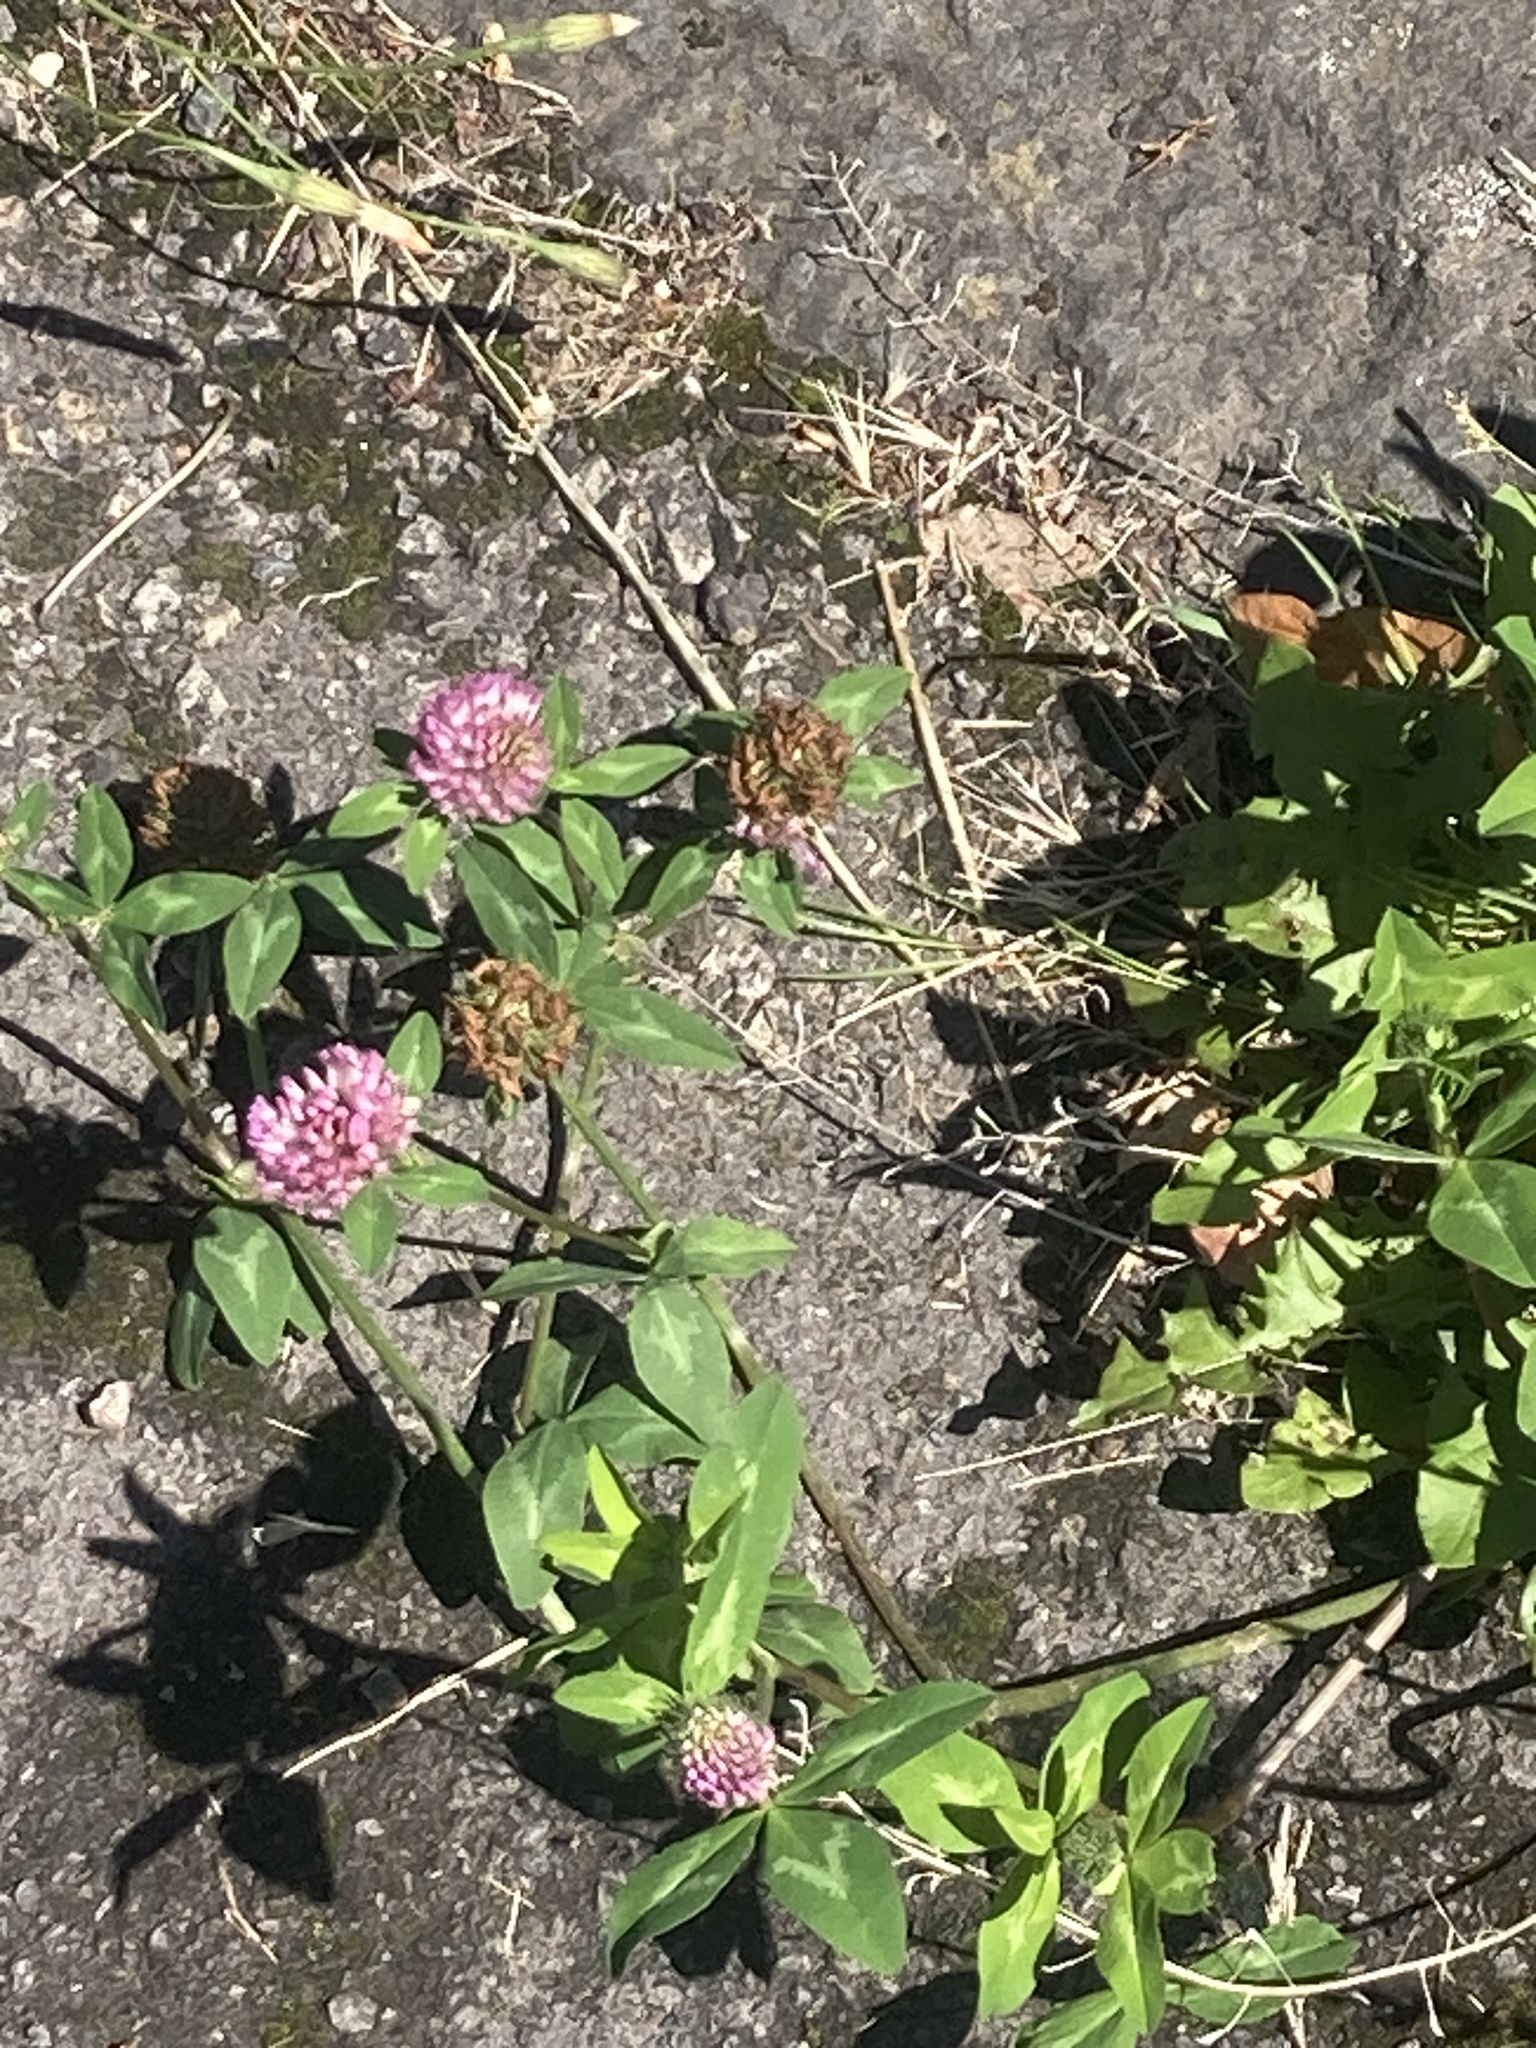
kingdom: Plantae
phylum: Tracheophyta
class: Magnoliopsida
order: Fabales
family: Fabaceae
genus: Trifolium
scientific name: Trifolium pratense
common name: Red clover
